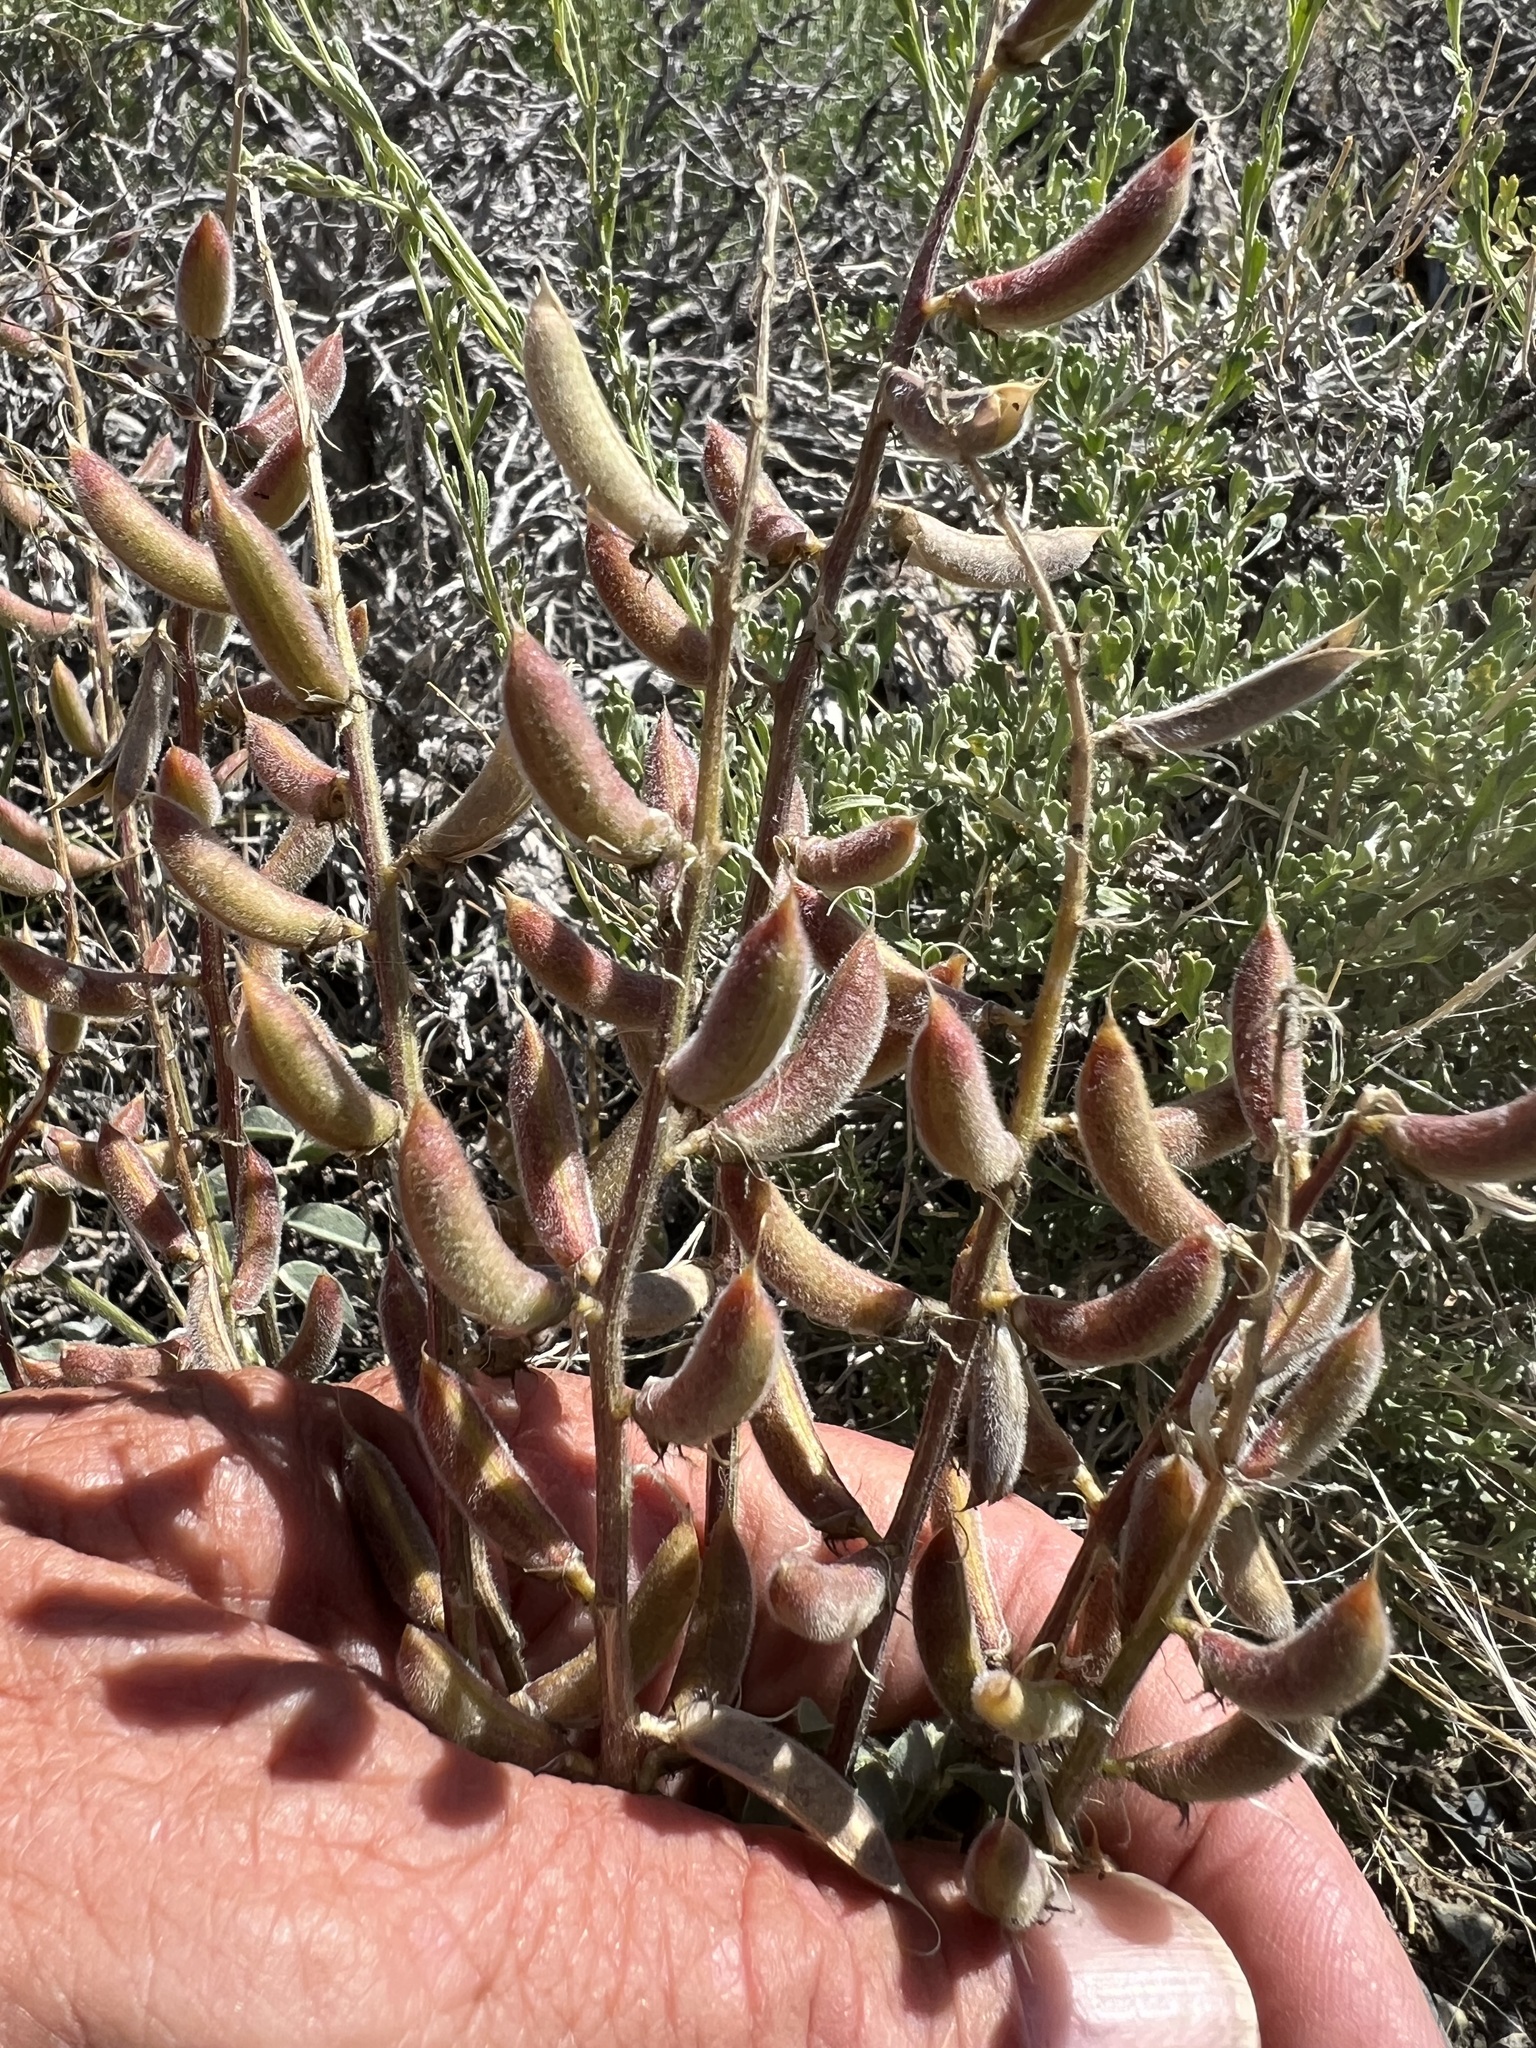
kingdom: Plantae
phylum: Tracheophyta
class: Magnoliopsida
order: Fabales
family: Fabaceae
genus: Astragalus
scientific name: Astragalus minthorniae
